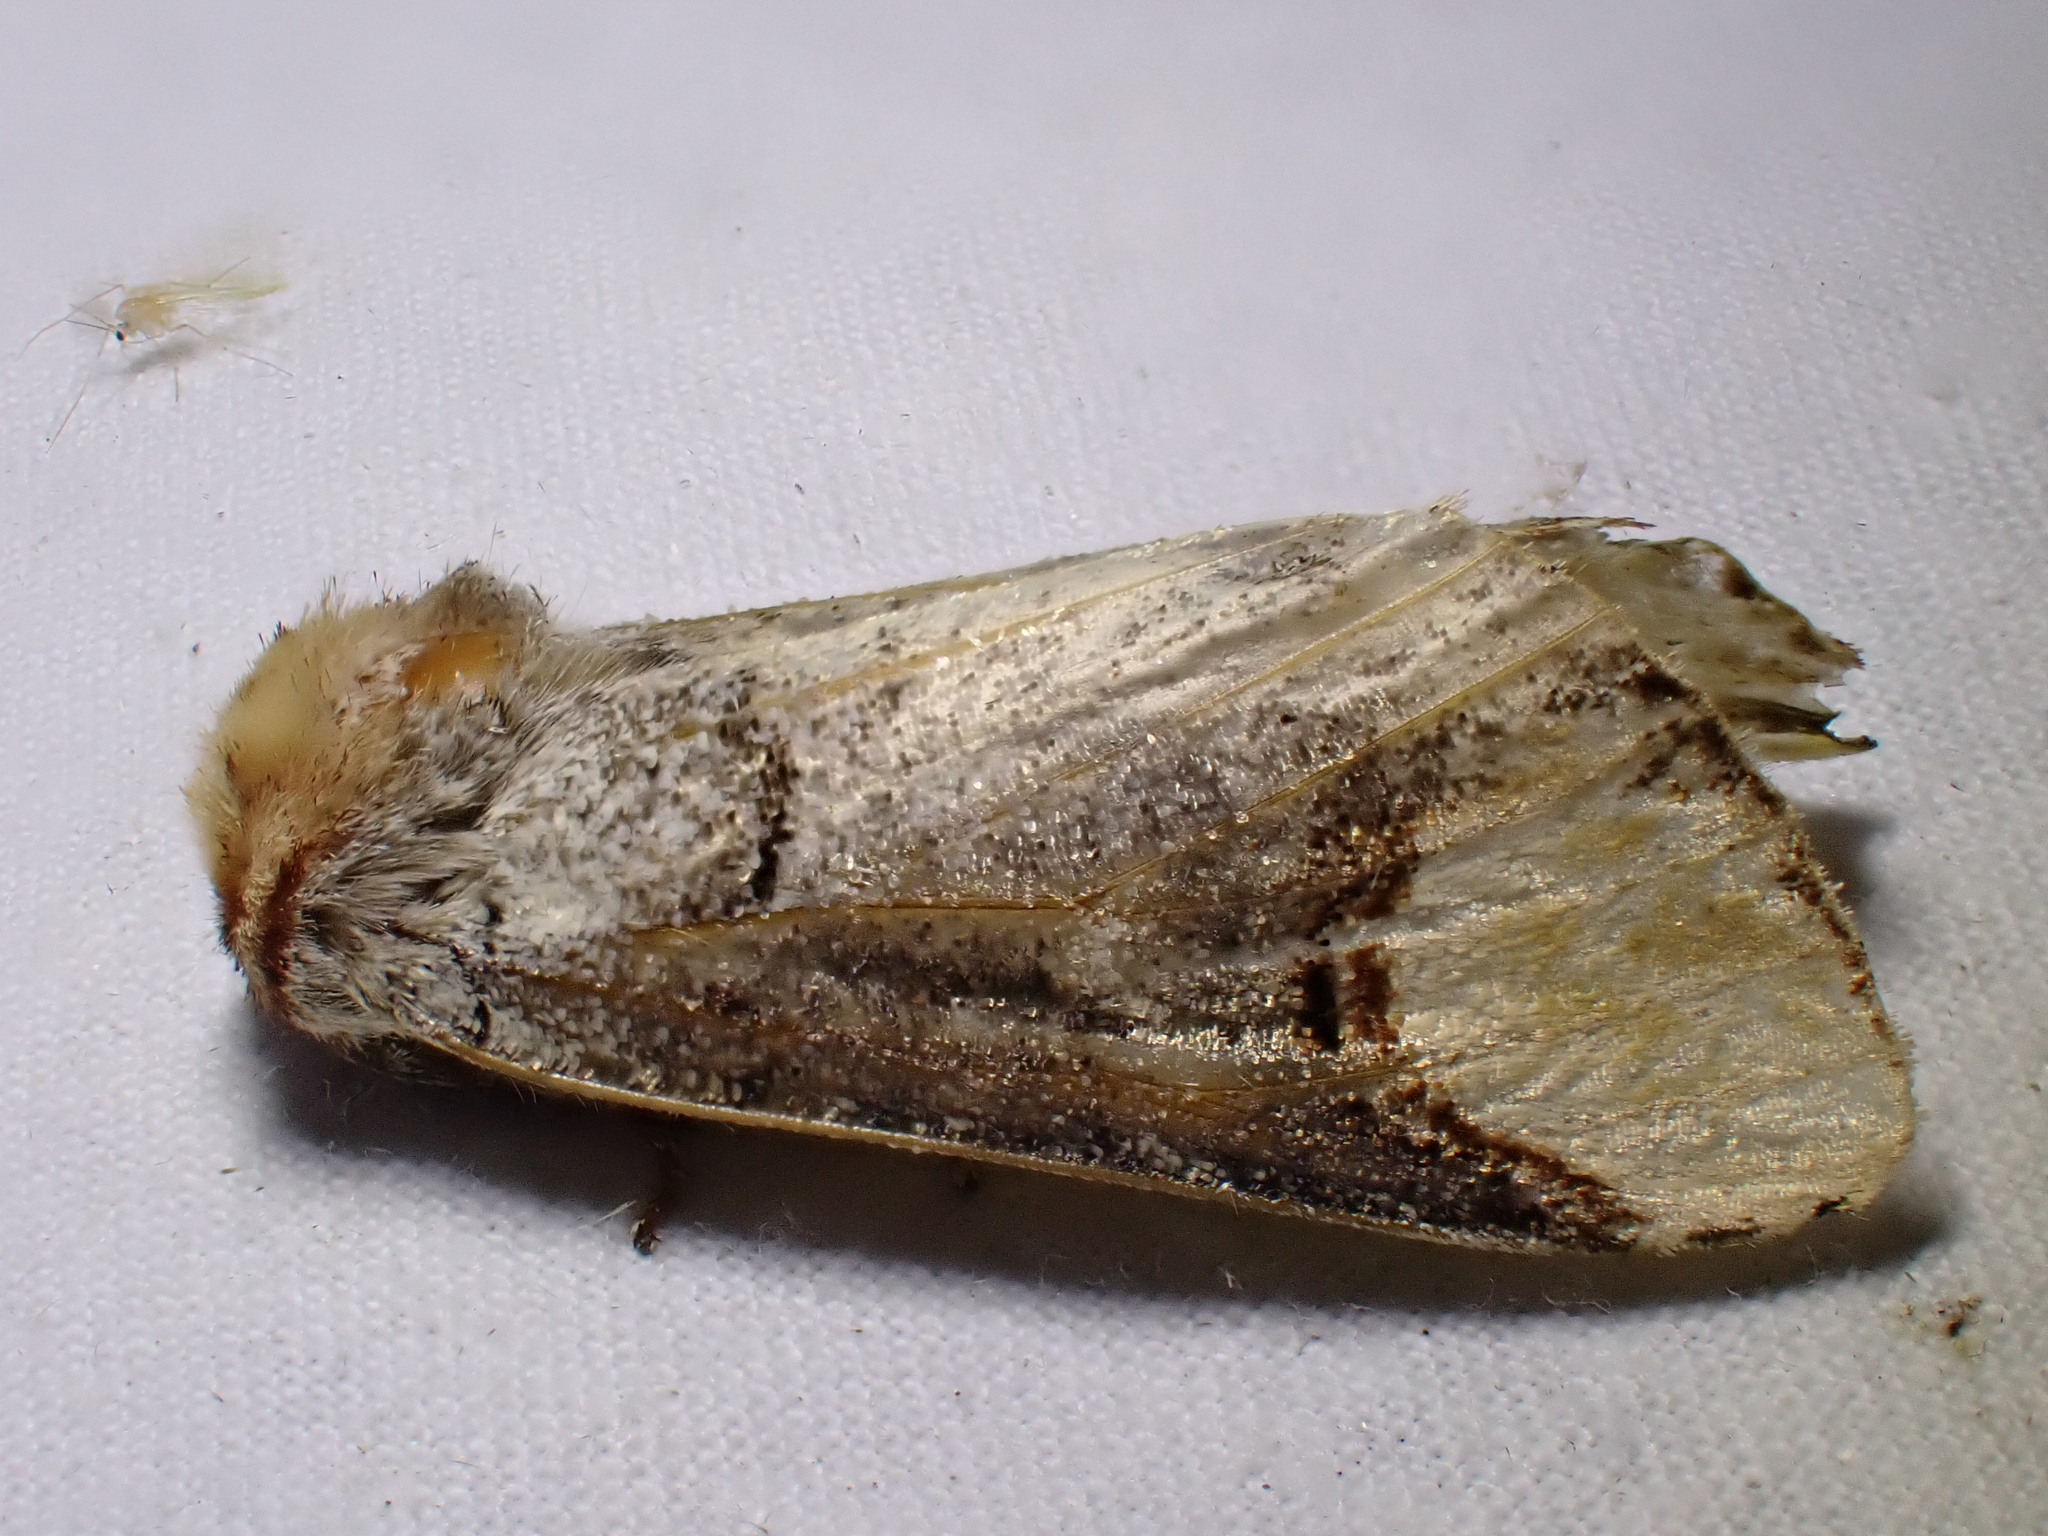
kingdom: Animalia
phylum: Arthropoda
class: Insecta
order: Lepidoptera
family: Notodontidae
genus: Phalera
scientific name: Phalera bucephala
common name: Buff-tip
